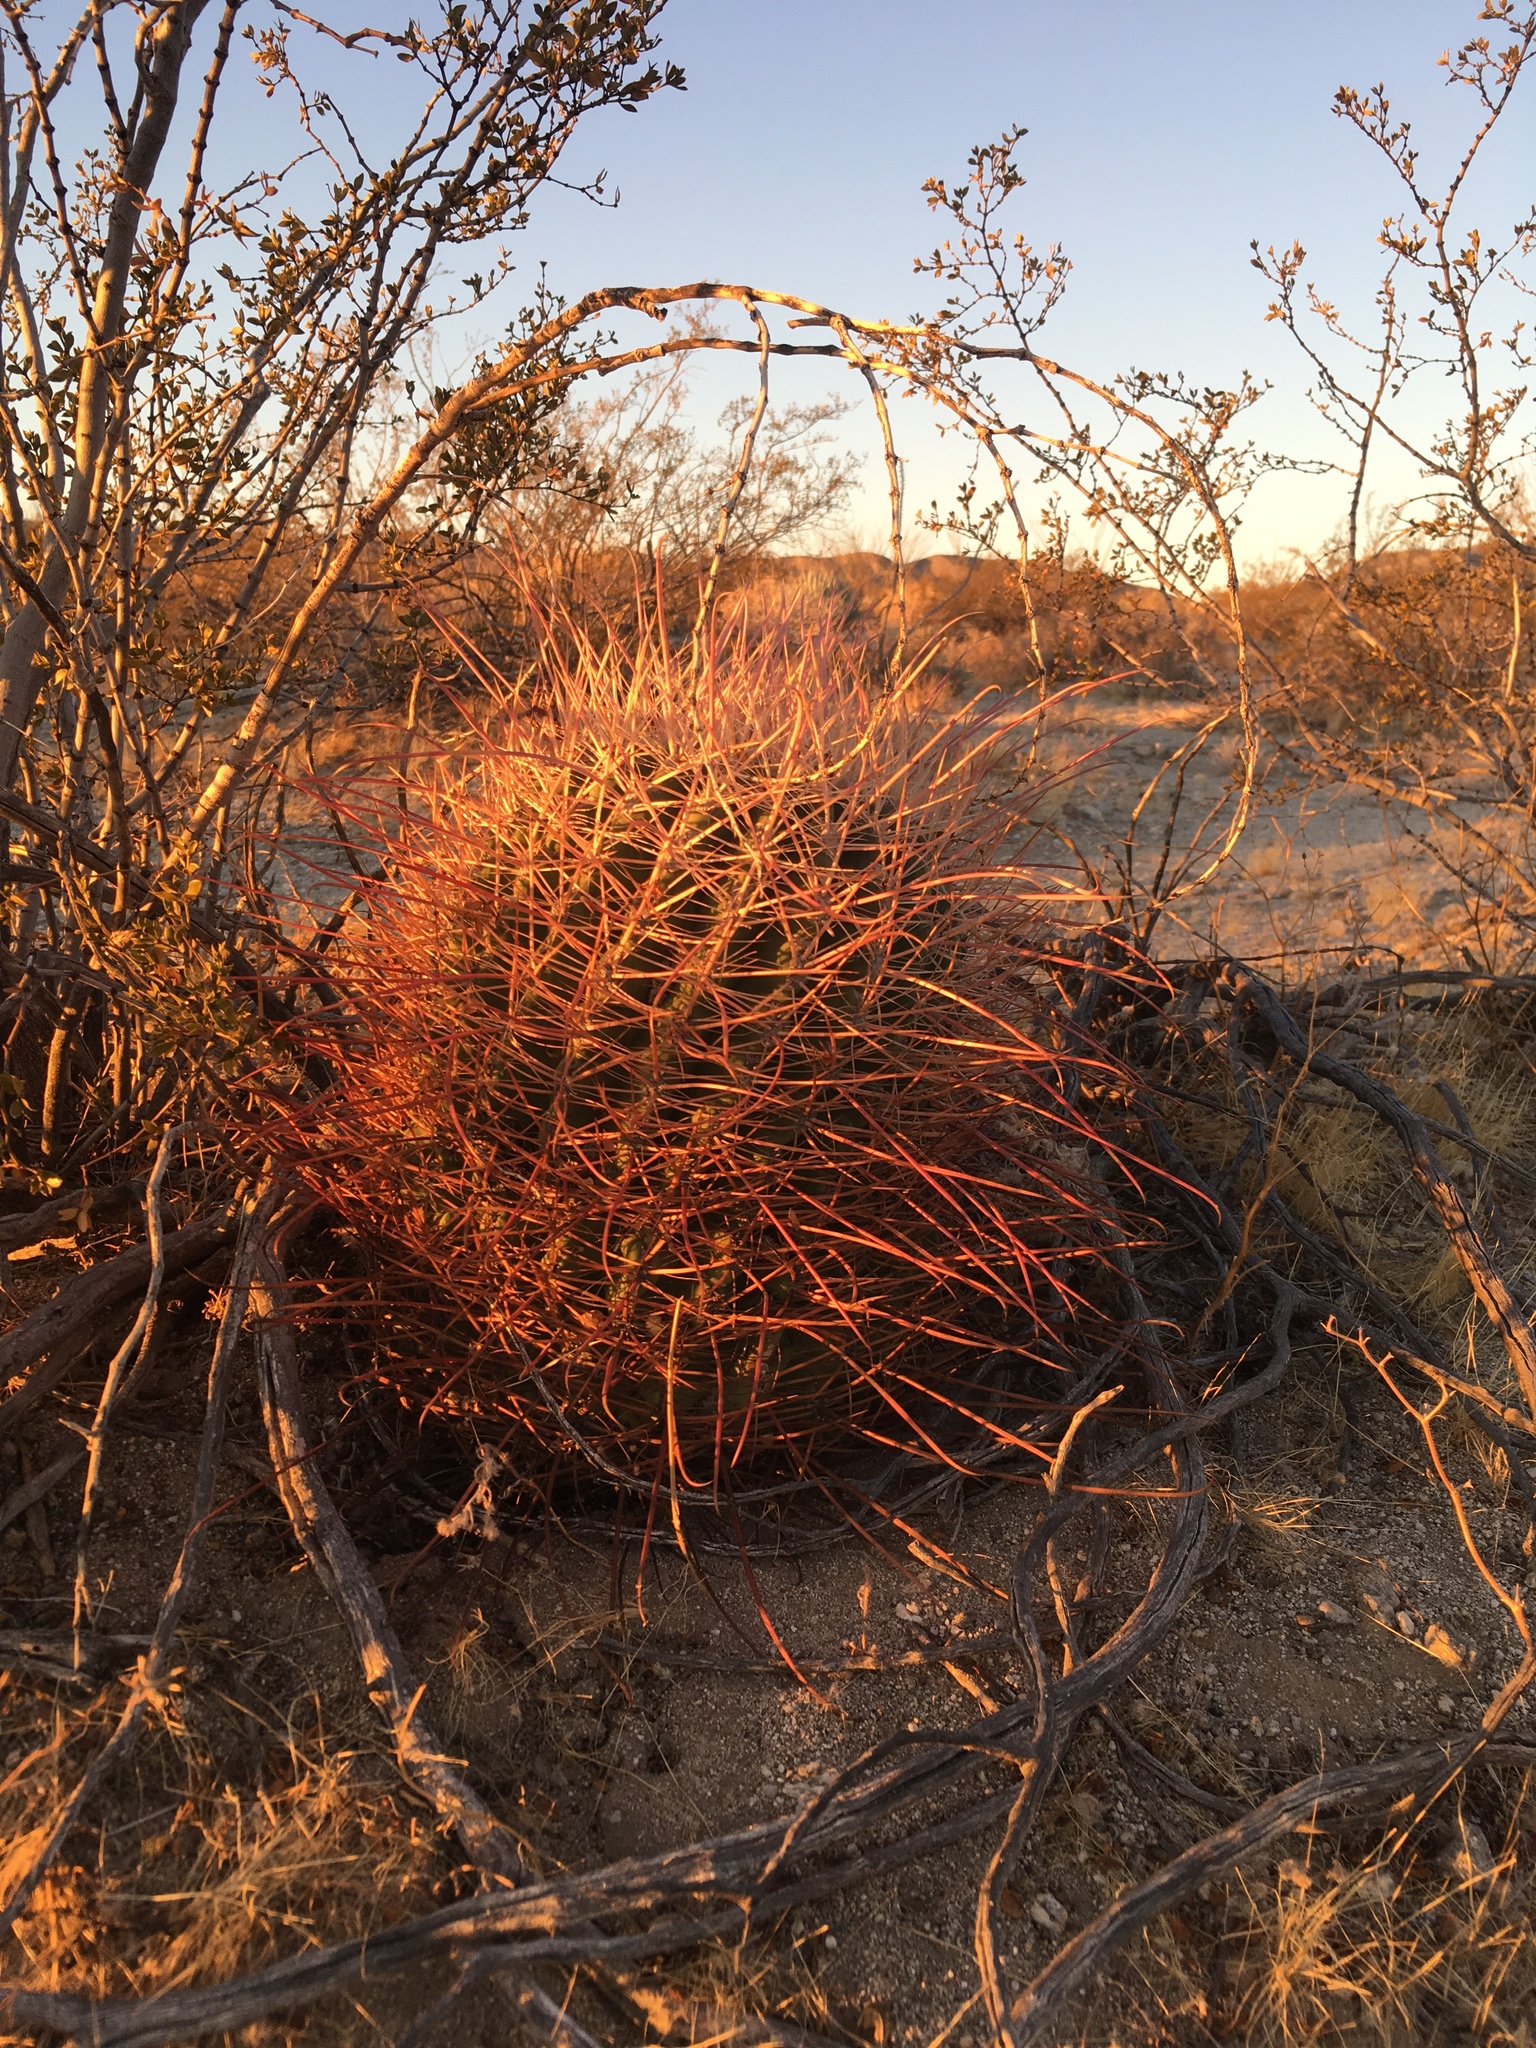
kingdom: Plantae
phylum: Tracheophyta
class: Magnoliopsida
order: Caryophyllales
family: Cactaceae
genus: Ferocactus
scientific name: Ferocactus cylindraceus
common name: California barrel cactus
